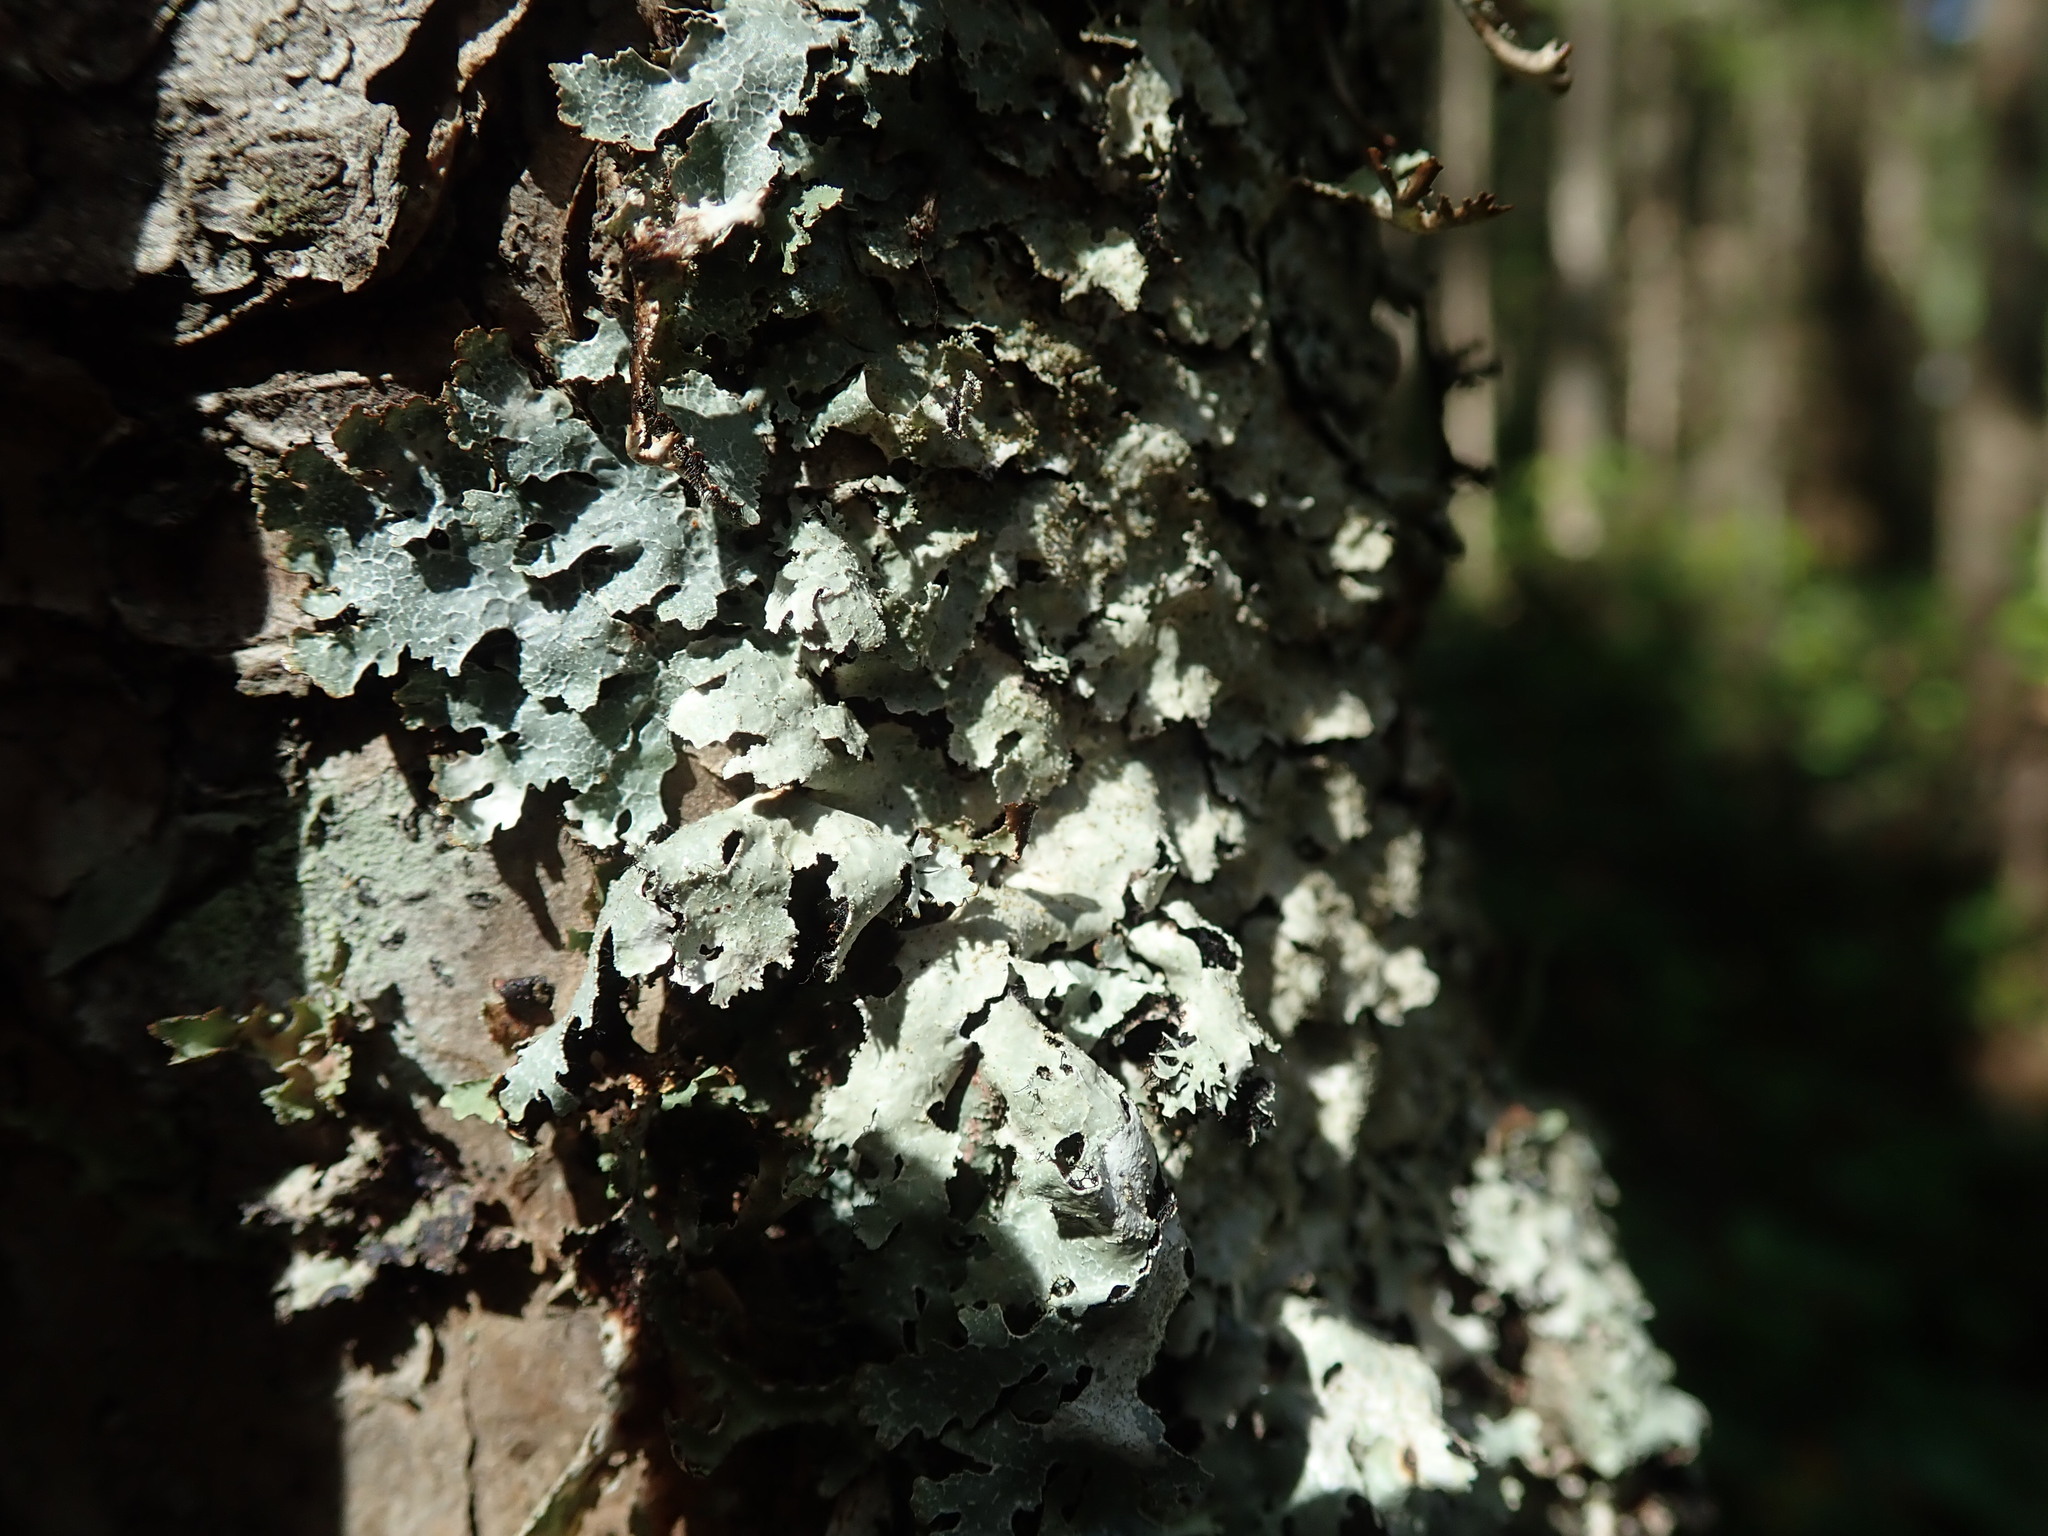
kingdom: Fungi
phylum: Ascomycota
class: Lecanoromycetes
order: Lecanorales
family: Parmeliaceae
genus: Parmelia
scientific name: Parmelia sulcata
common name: Netted shield lichen
